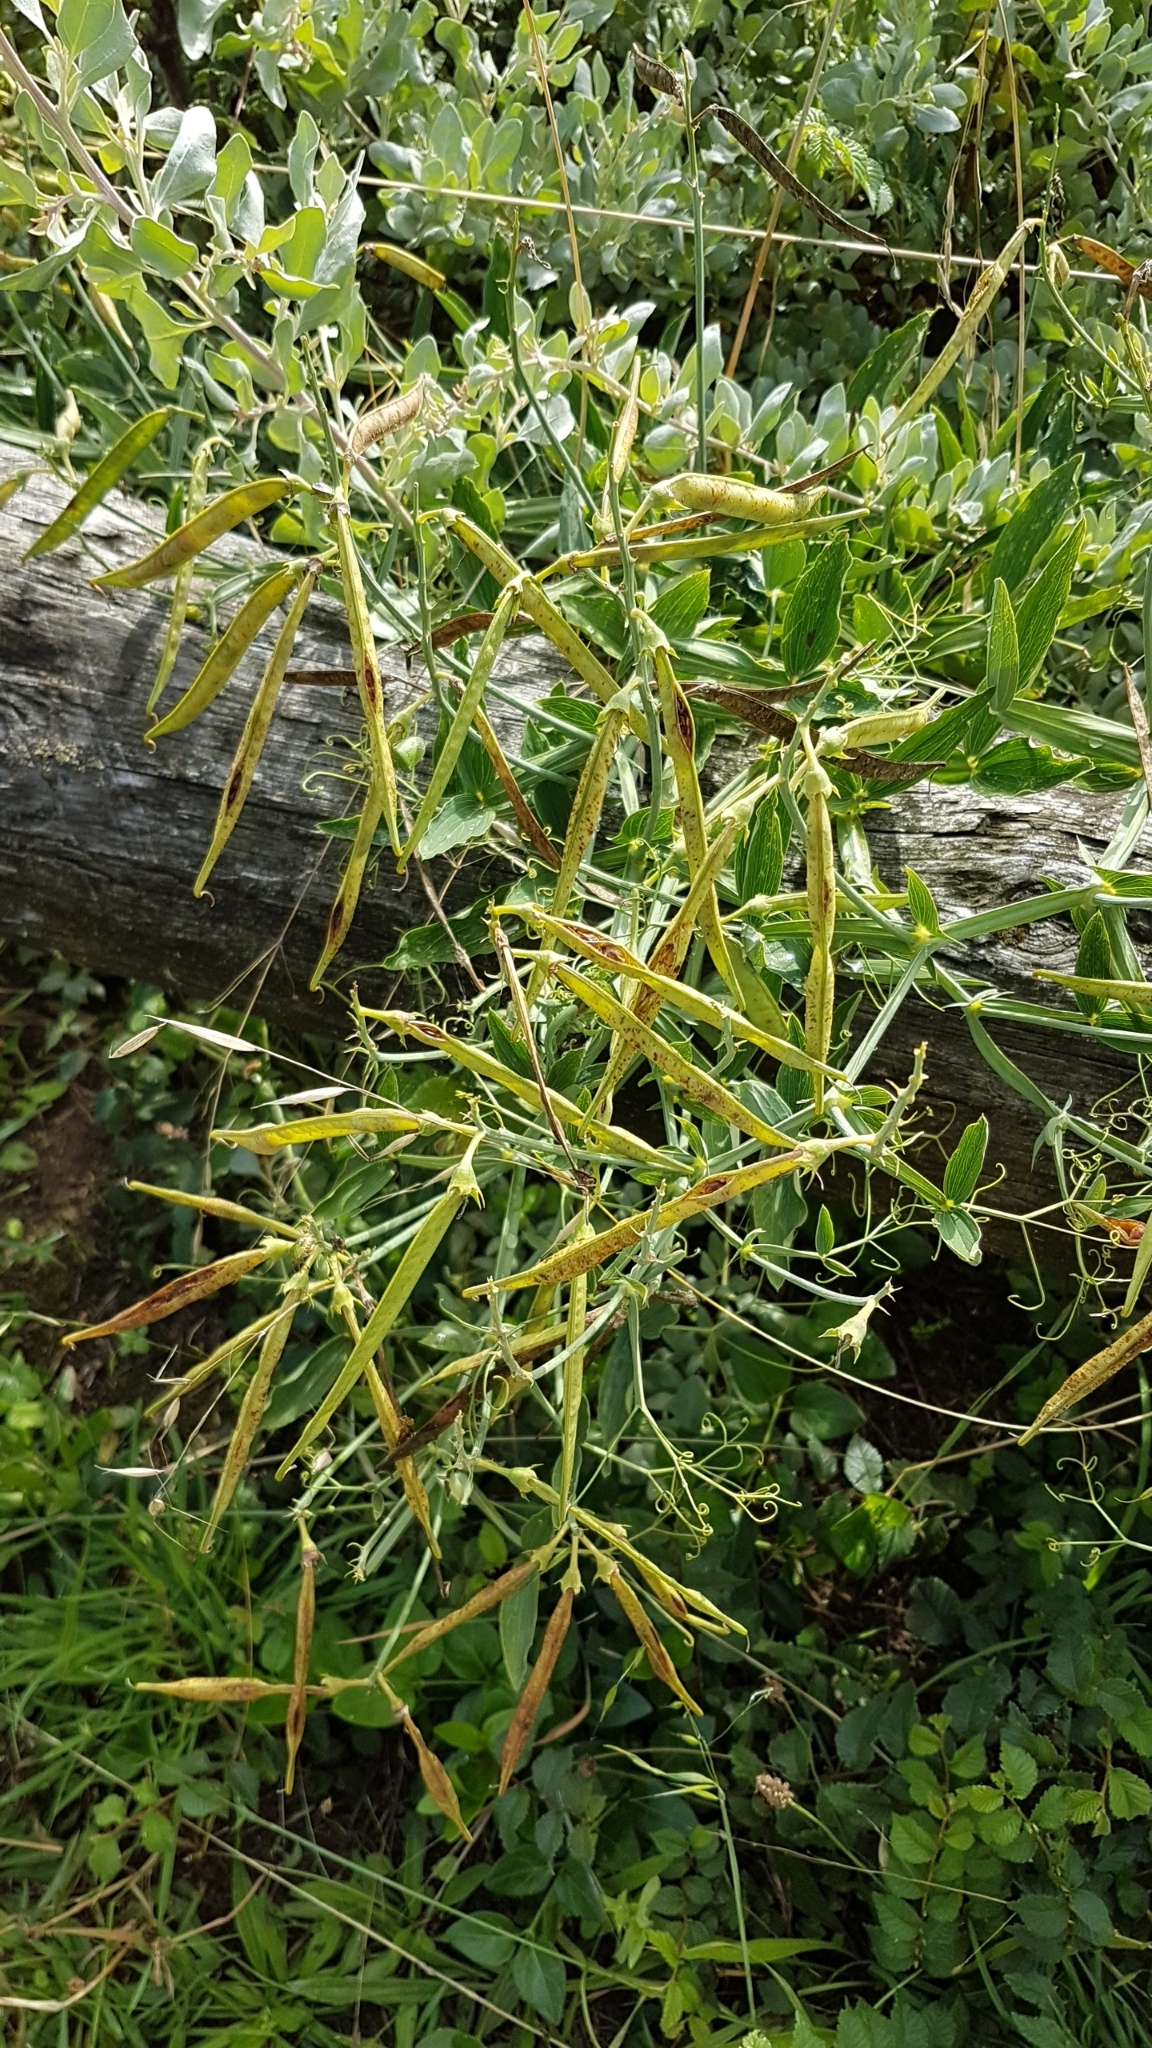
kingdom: Plantae
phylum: Tracheophyta
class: Magnoliopsida
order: Fabales
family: Fabaceae
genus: Lathyrus
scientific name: Lathyrus latifolius
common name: Perennial pea
